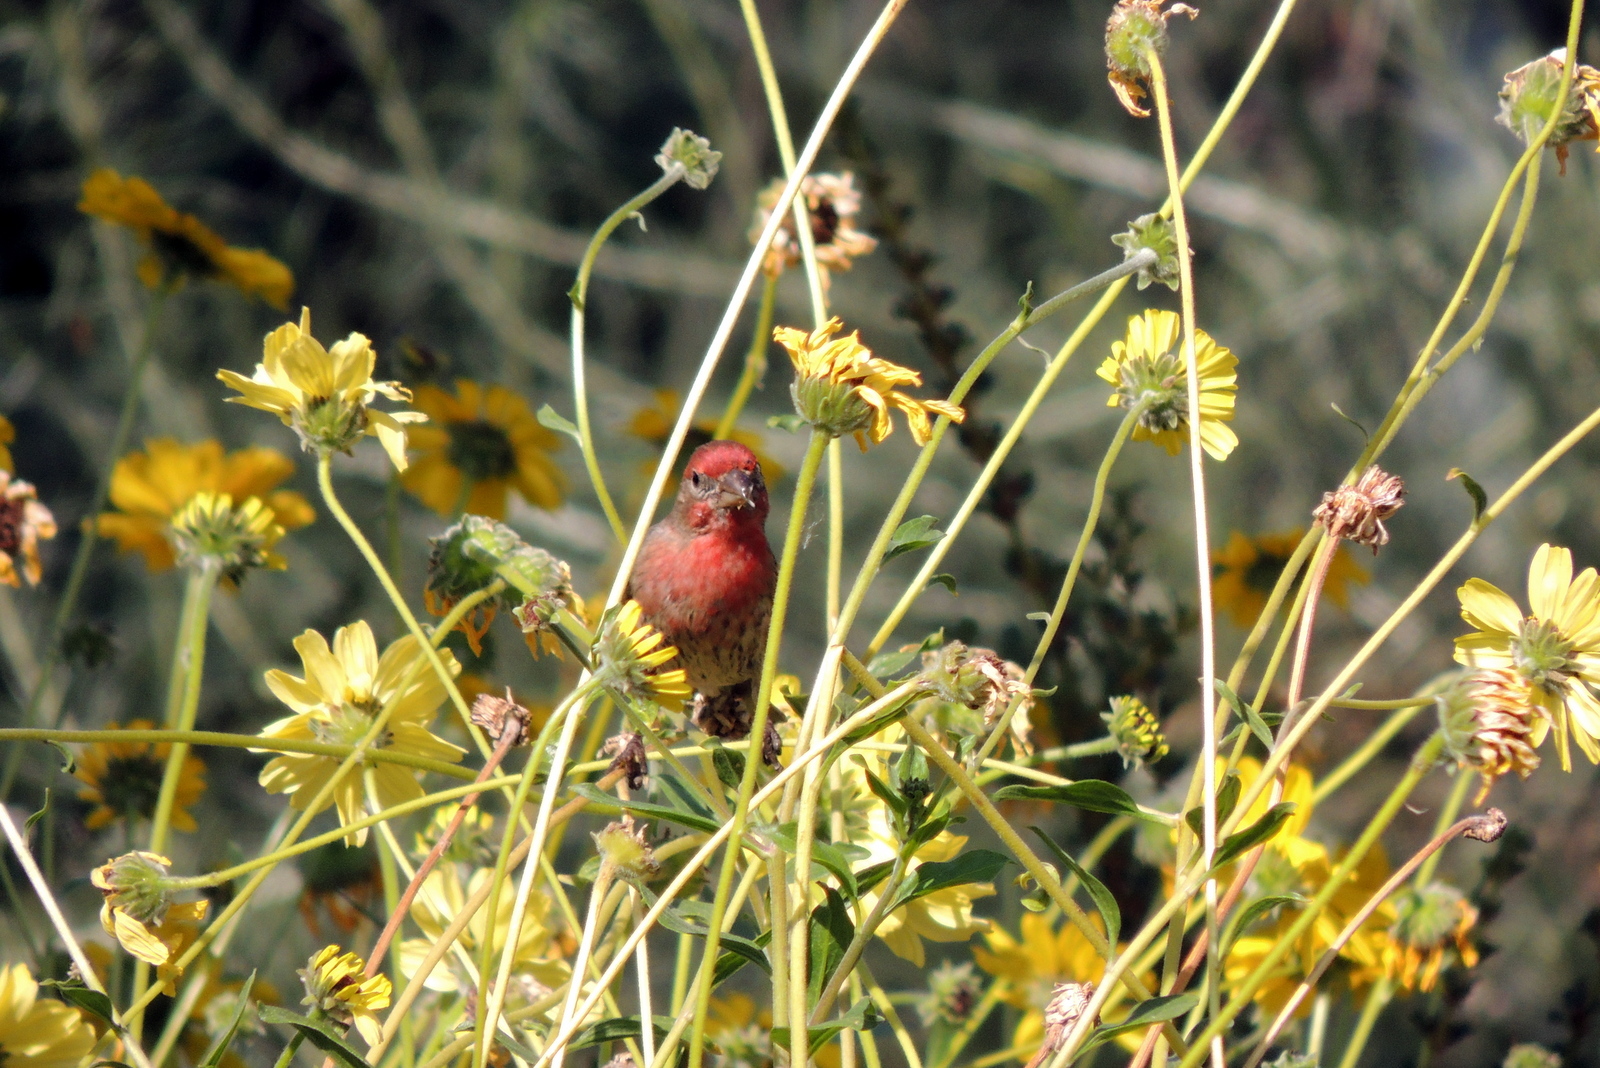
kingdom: Animalia
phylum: Chordata
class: Aves
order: Passeriformes
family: Fringillidae
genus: Haemorhous
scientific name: Haemorhous mexicanus
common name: House finch
